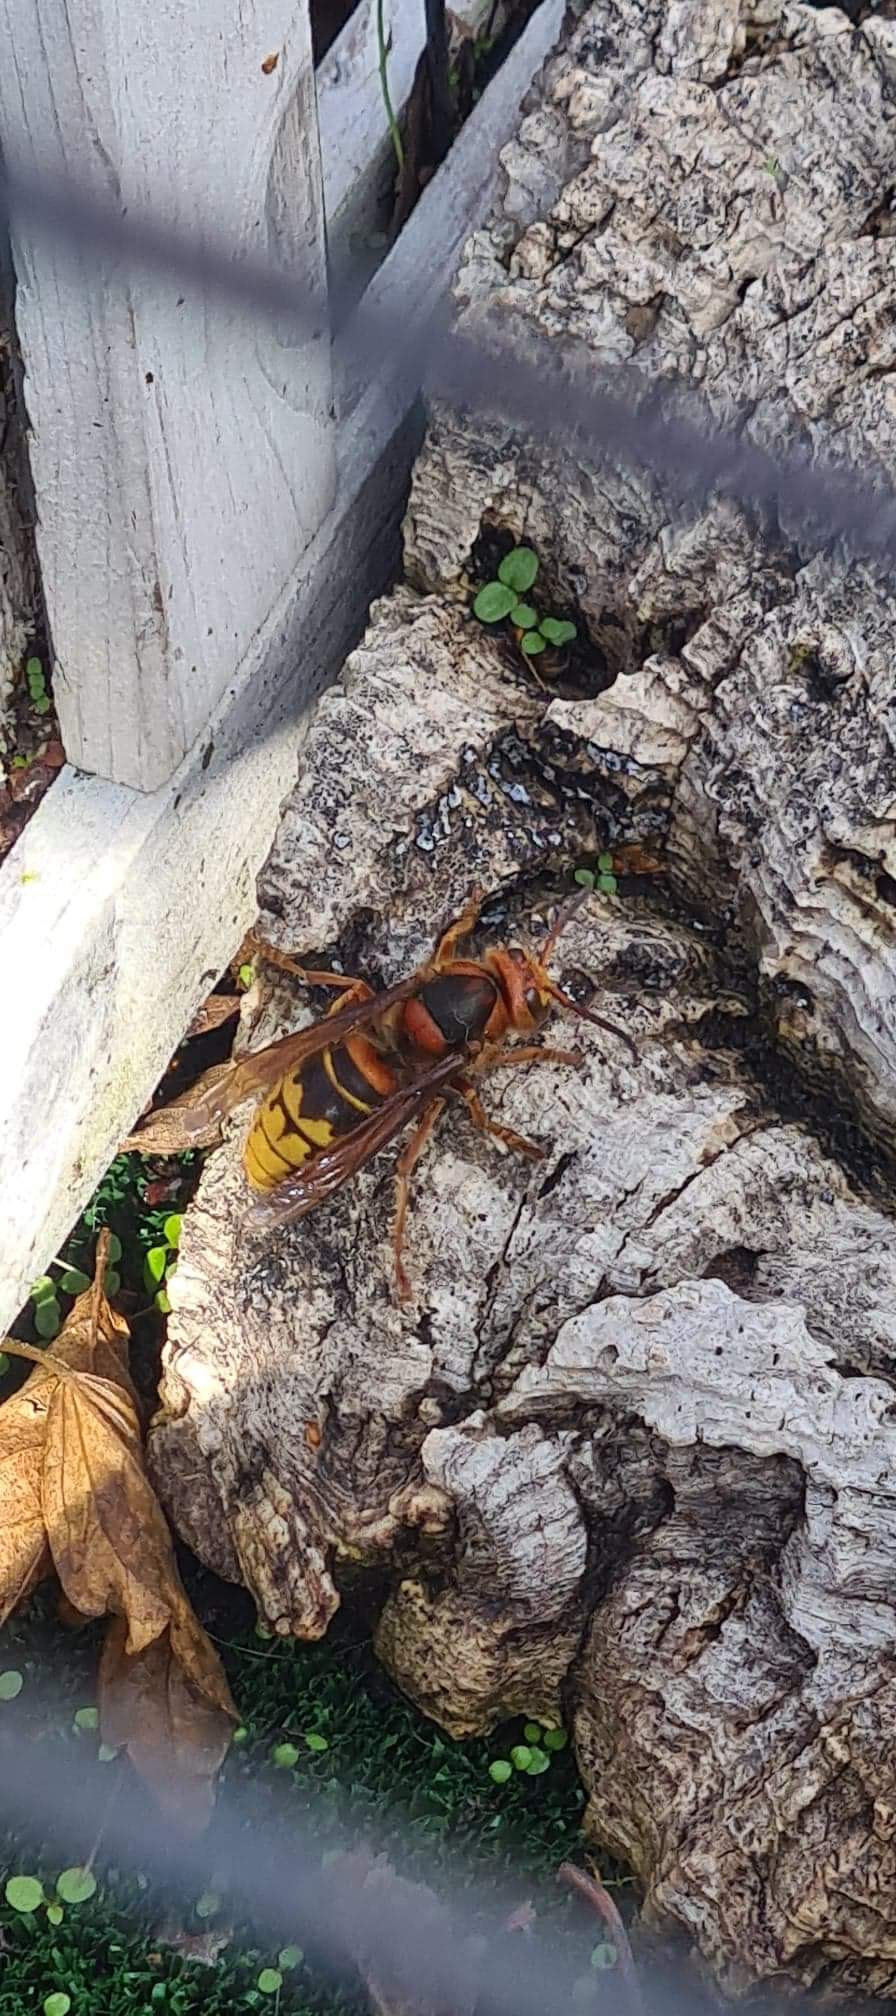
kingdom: Animalia
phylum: Arthropoda
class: Insecta
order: Hymenoptera
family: Vespidae
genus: Vespa
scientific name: Vespa crabro
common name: Hornet
